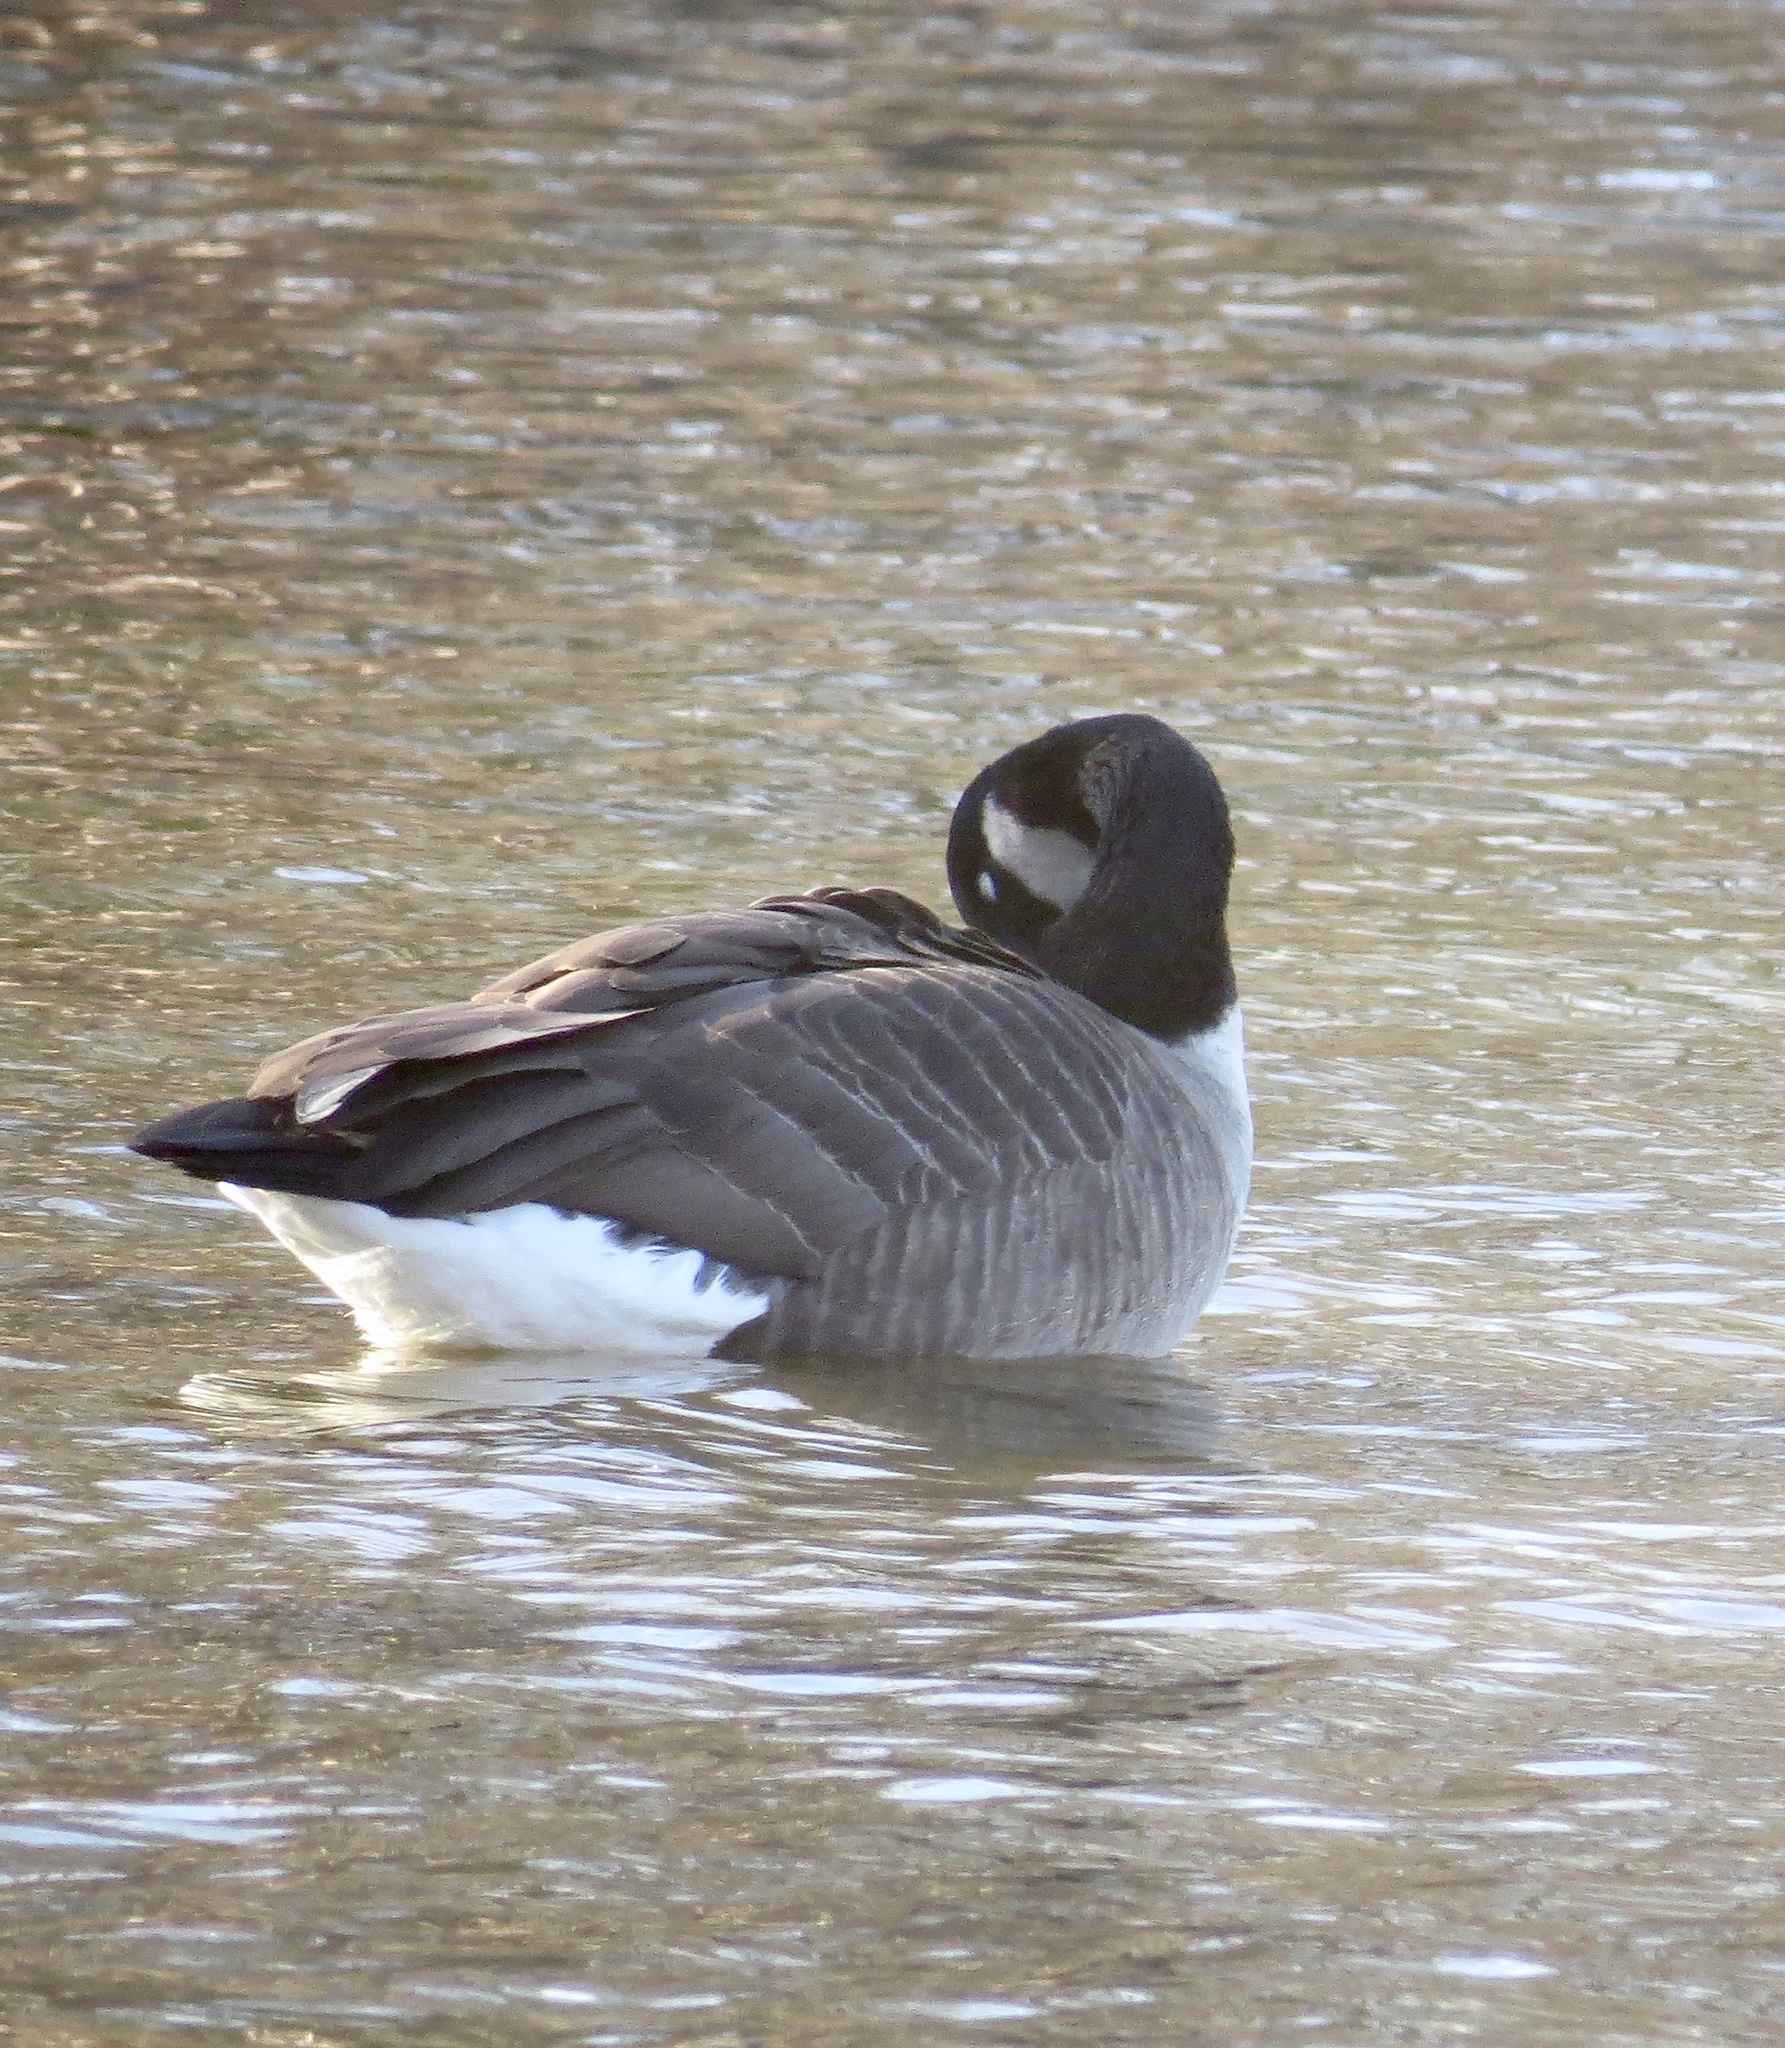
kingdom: Animalia
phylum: Chordata
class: Aves
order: Anseriformes
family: Anatidae
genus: Branta
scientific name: Branta canadensis
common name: Canada goose
